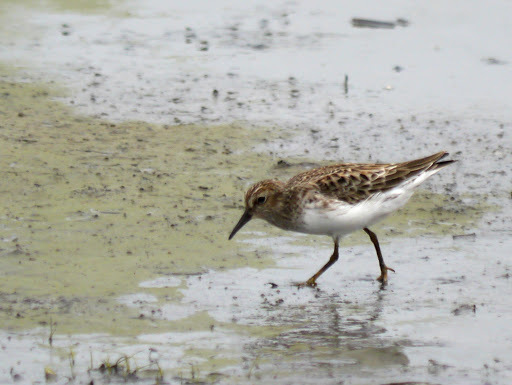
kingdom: Animalia
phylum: Chordata
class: Aves
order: Charadriiformes
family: Scolopacidae
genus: Calidris
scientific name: Calidris minutilla
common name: Least sandpiper
